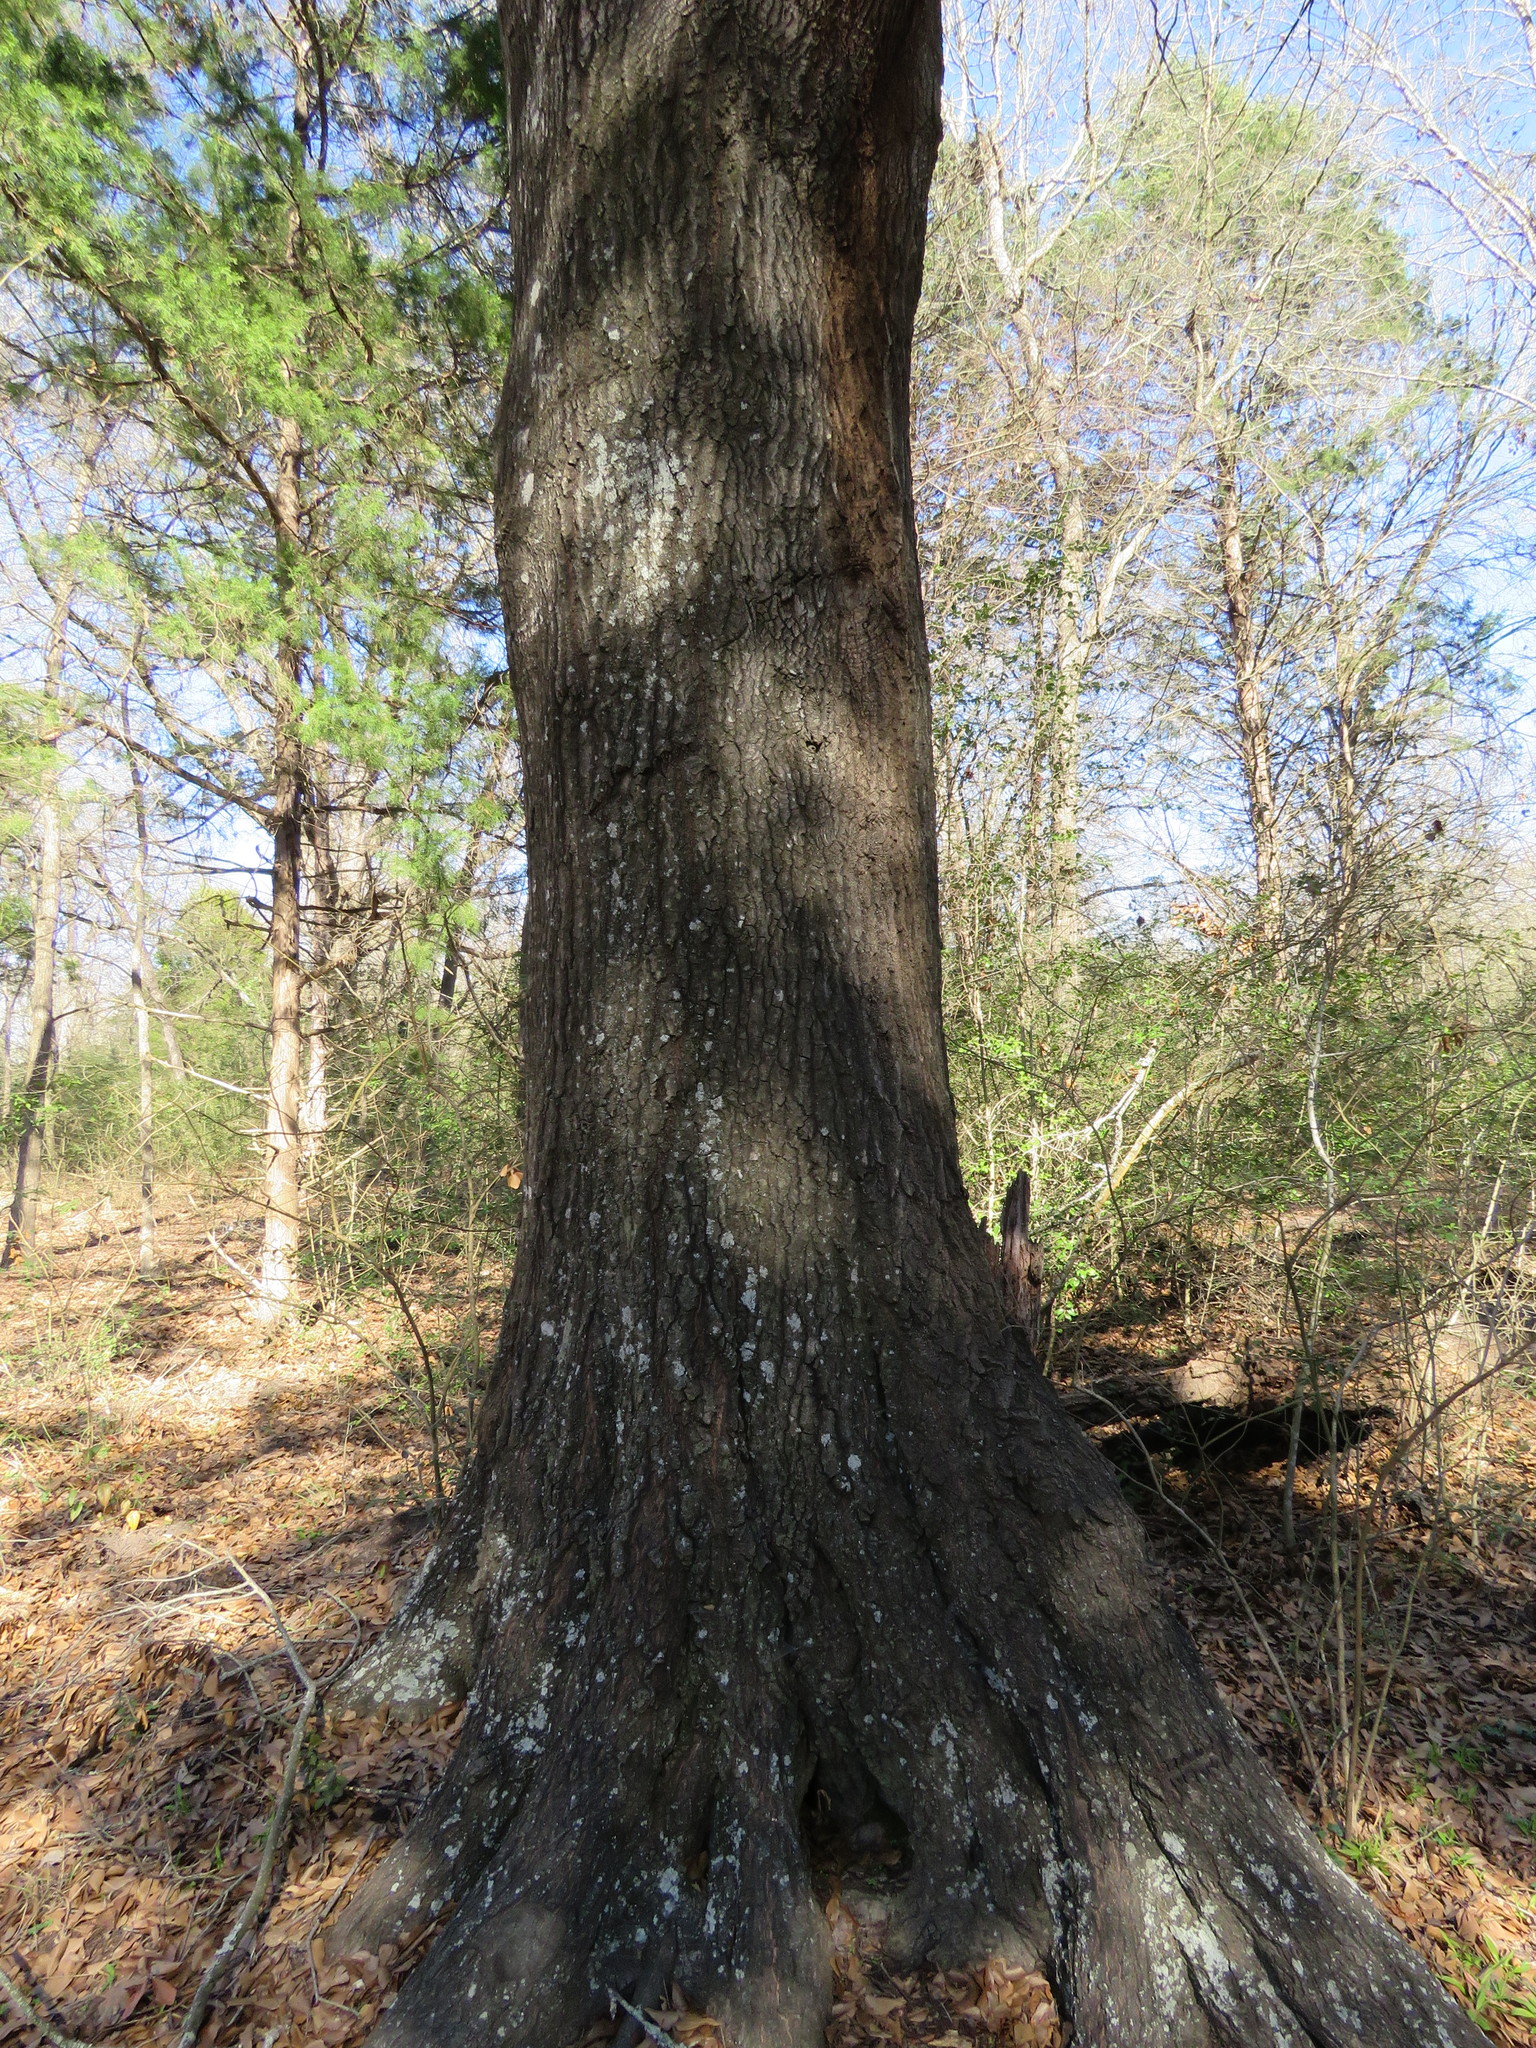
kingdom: Plantae
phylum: Tracheophyta
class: Magnoliopsida
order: Fagales
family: Fagaceae
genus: Quercus
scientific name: Quercus nigra
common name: Water oak
